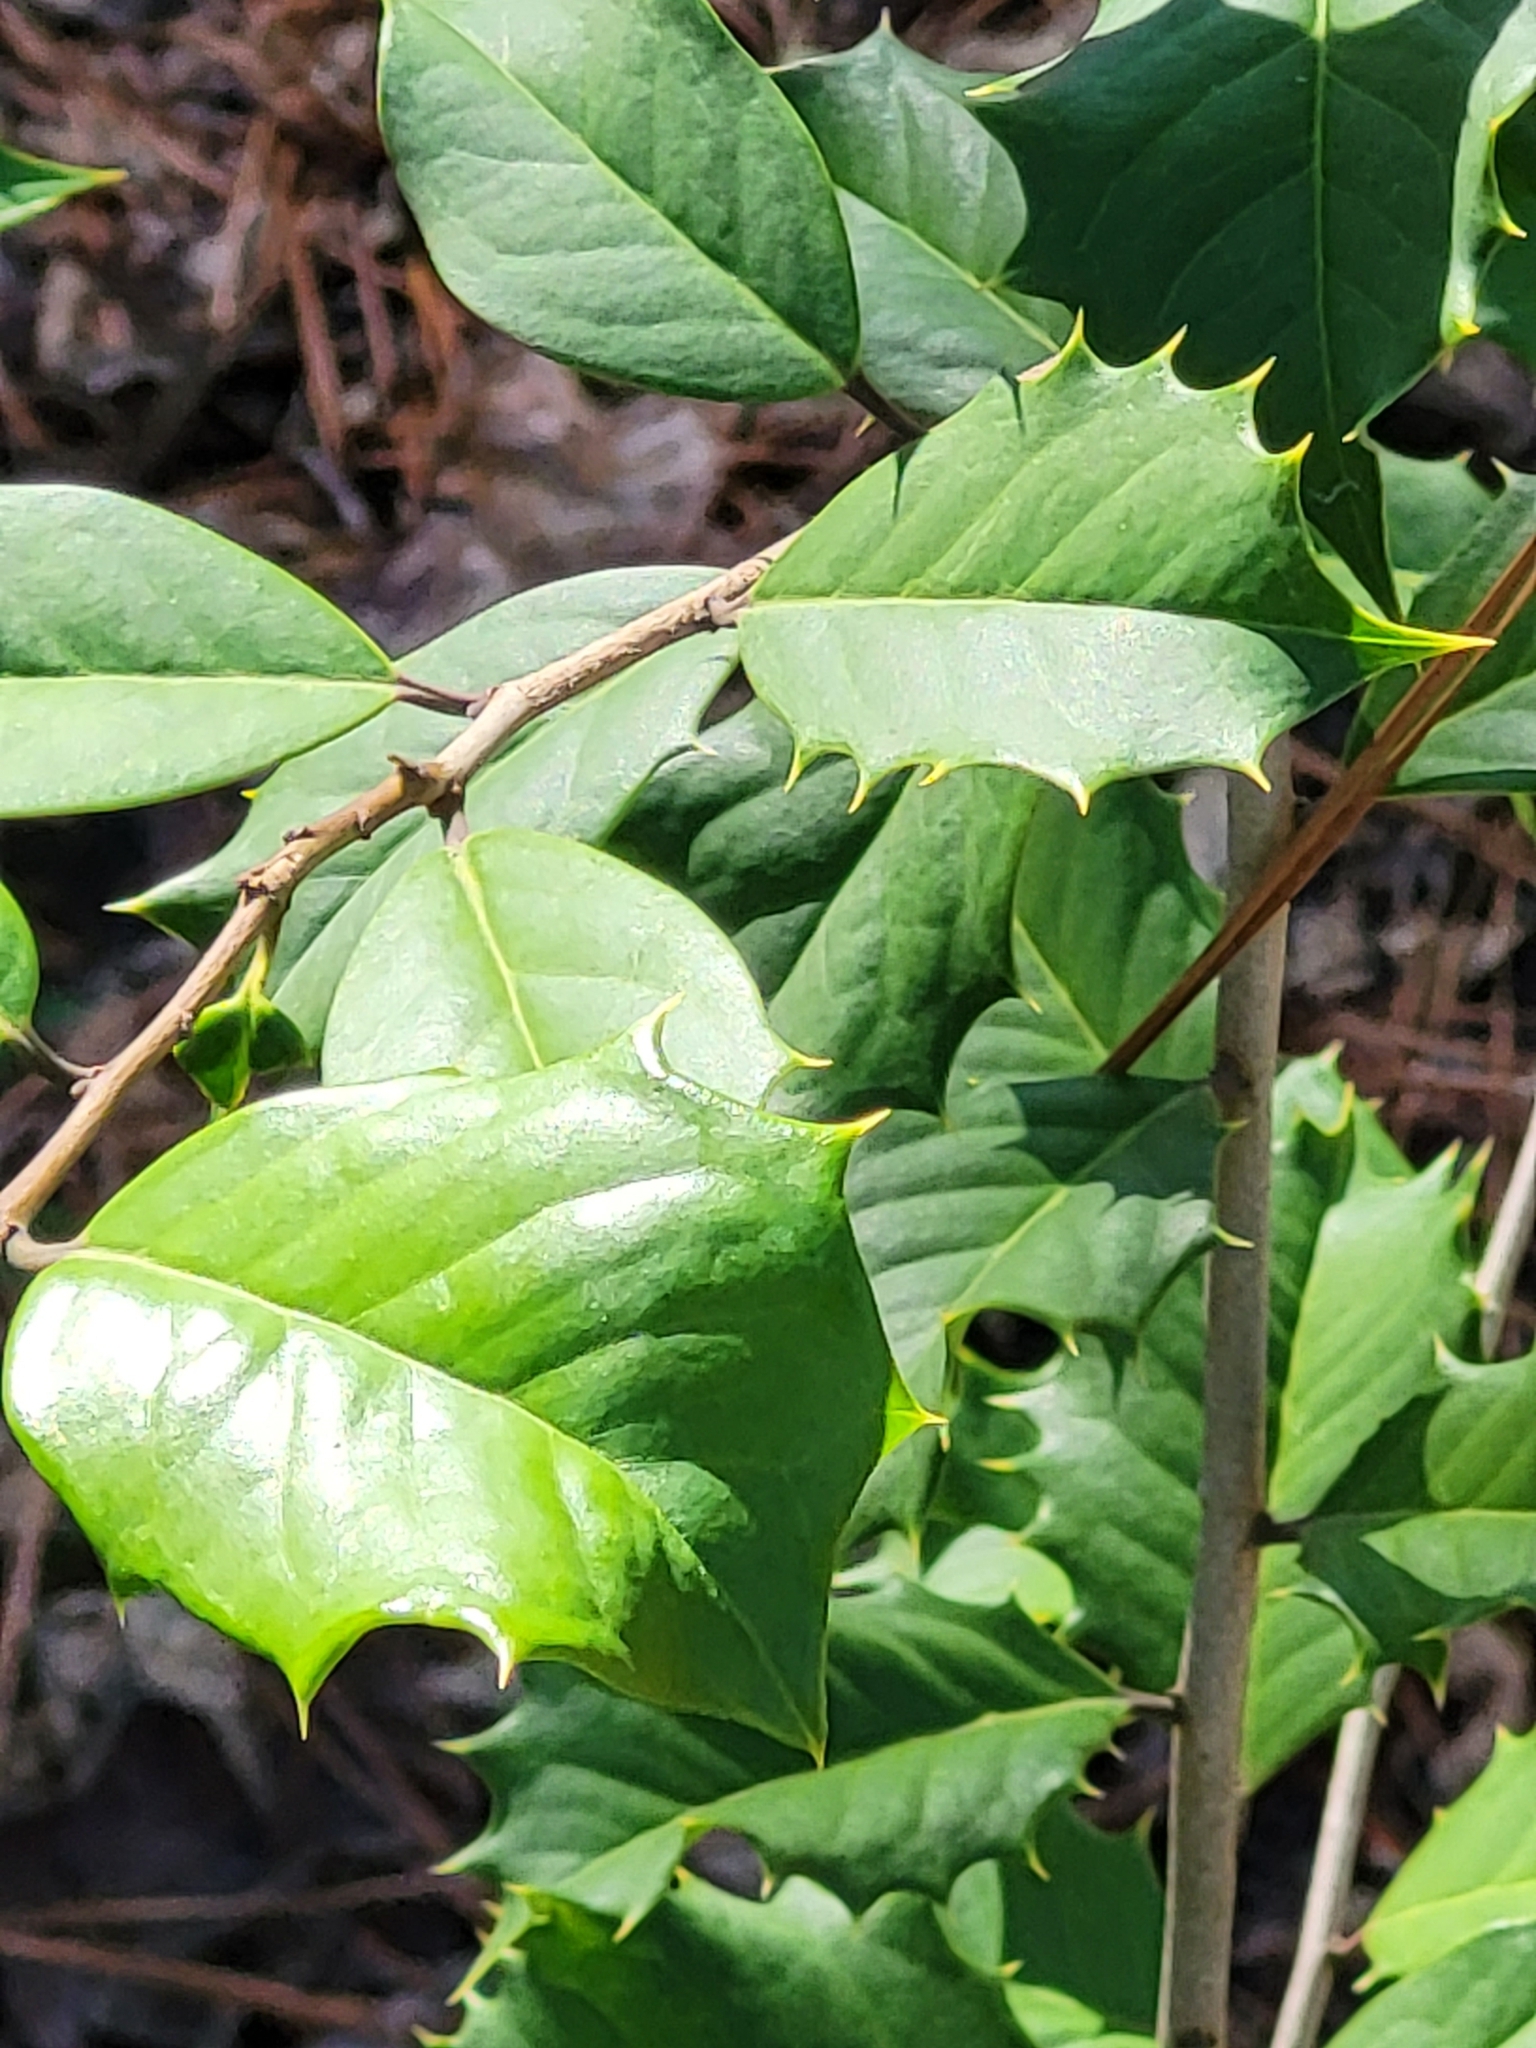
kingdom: Plantae
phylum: Tracheophyta
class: Magnoliopsida
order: Aquifoliales
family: Aquifoliaceae
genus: Ilex
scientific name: Ilex opaca
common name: American holly
